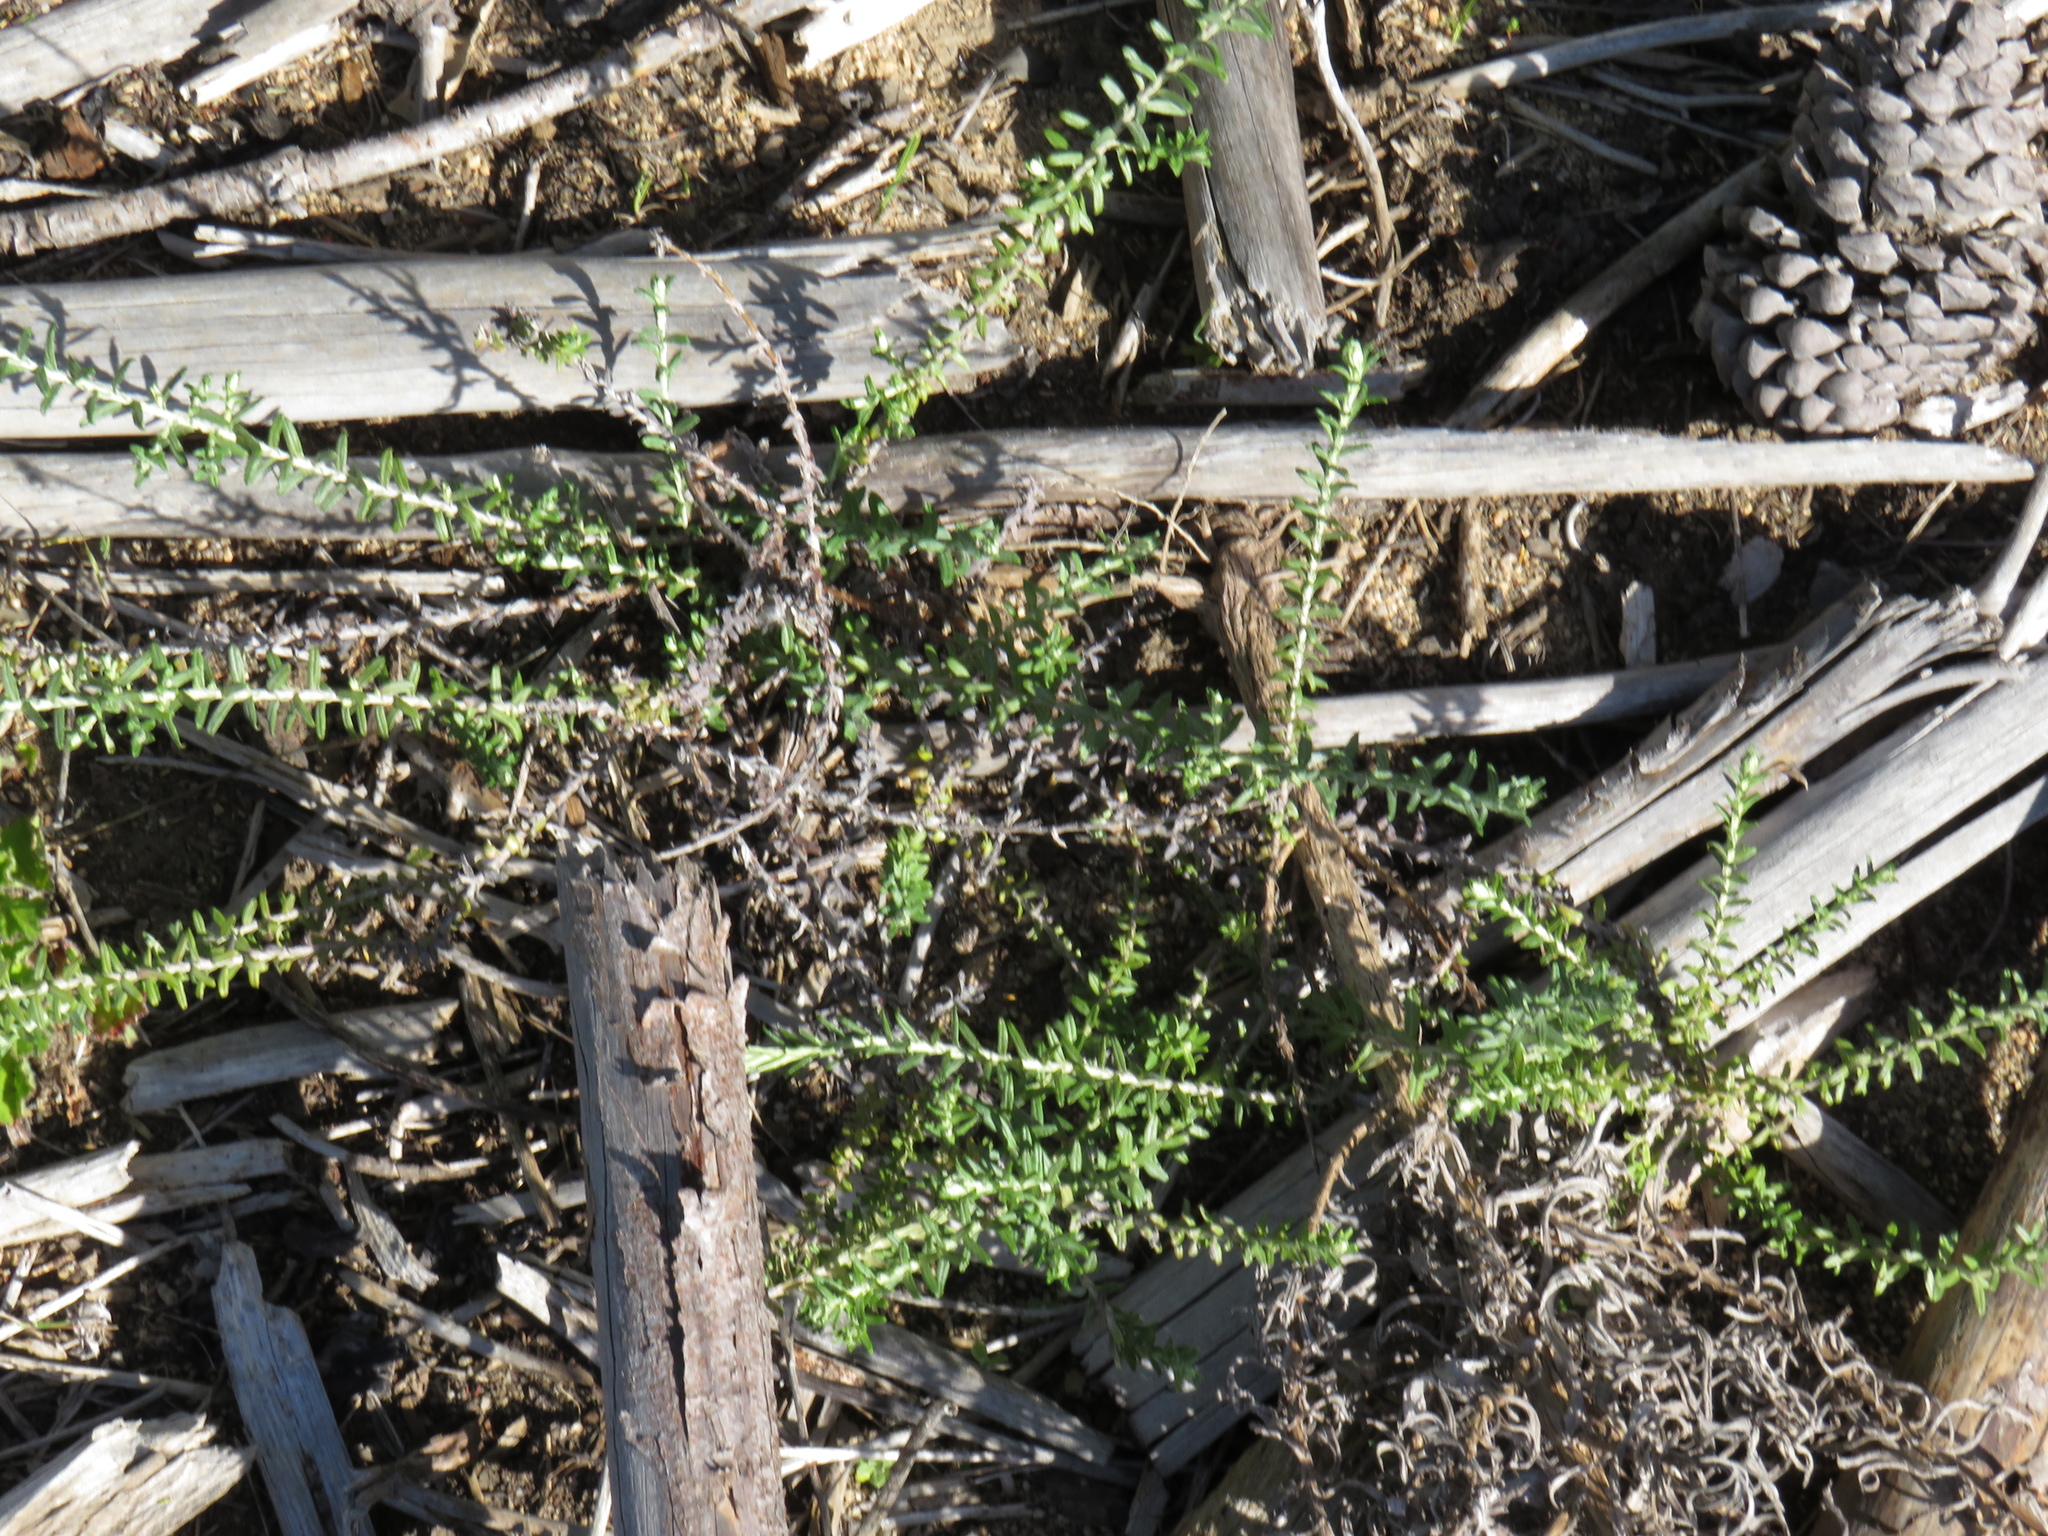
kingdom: Plantae
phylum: Tracheophyta
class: Magnoliopsida
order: Asterales
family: Asteraceae
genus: Helichrysum
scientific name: Helichrysum cymosum
